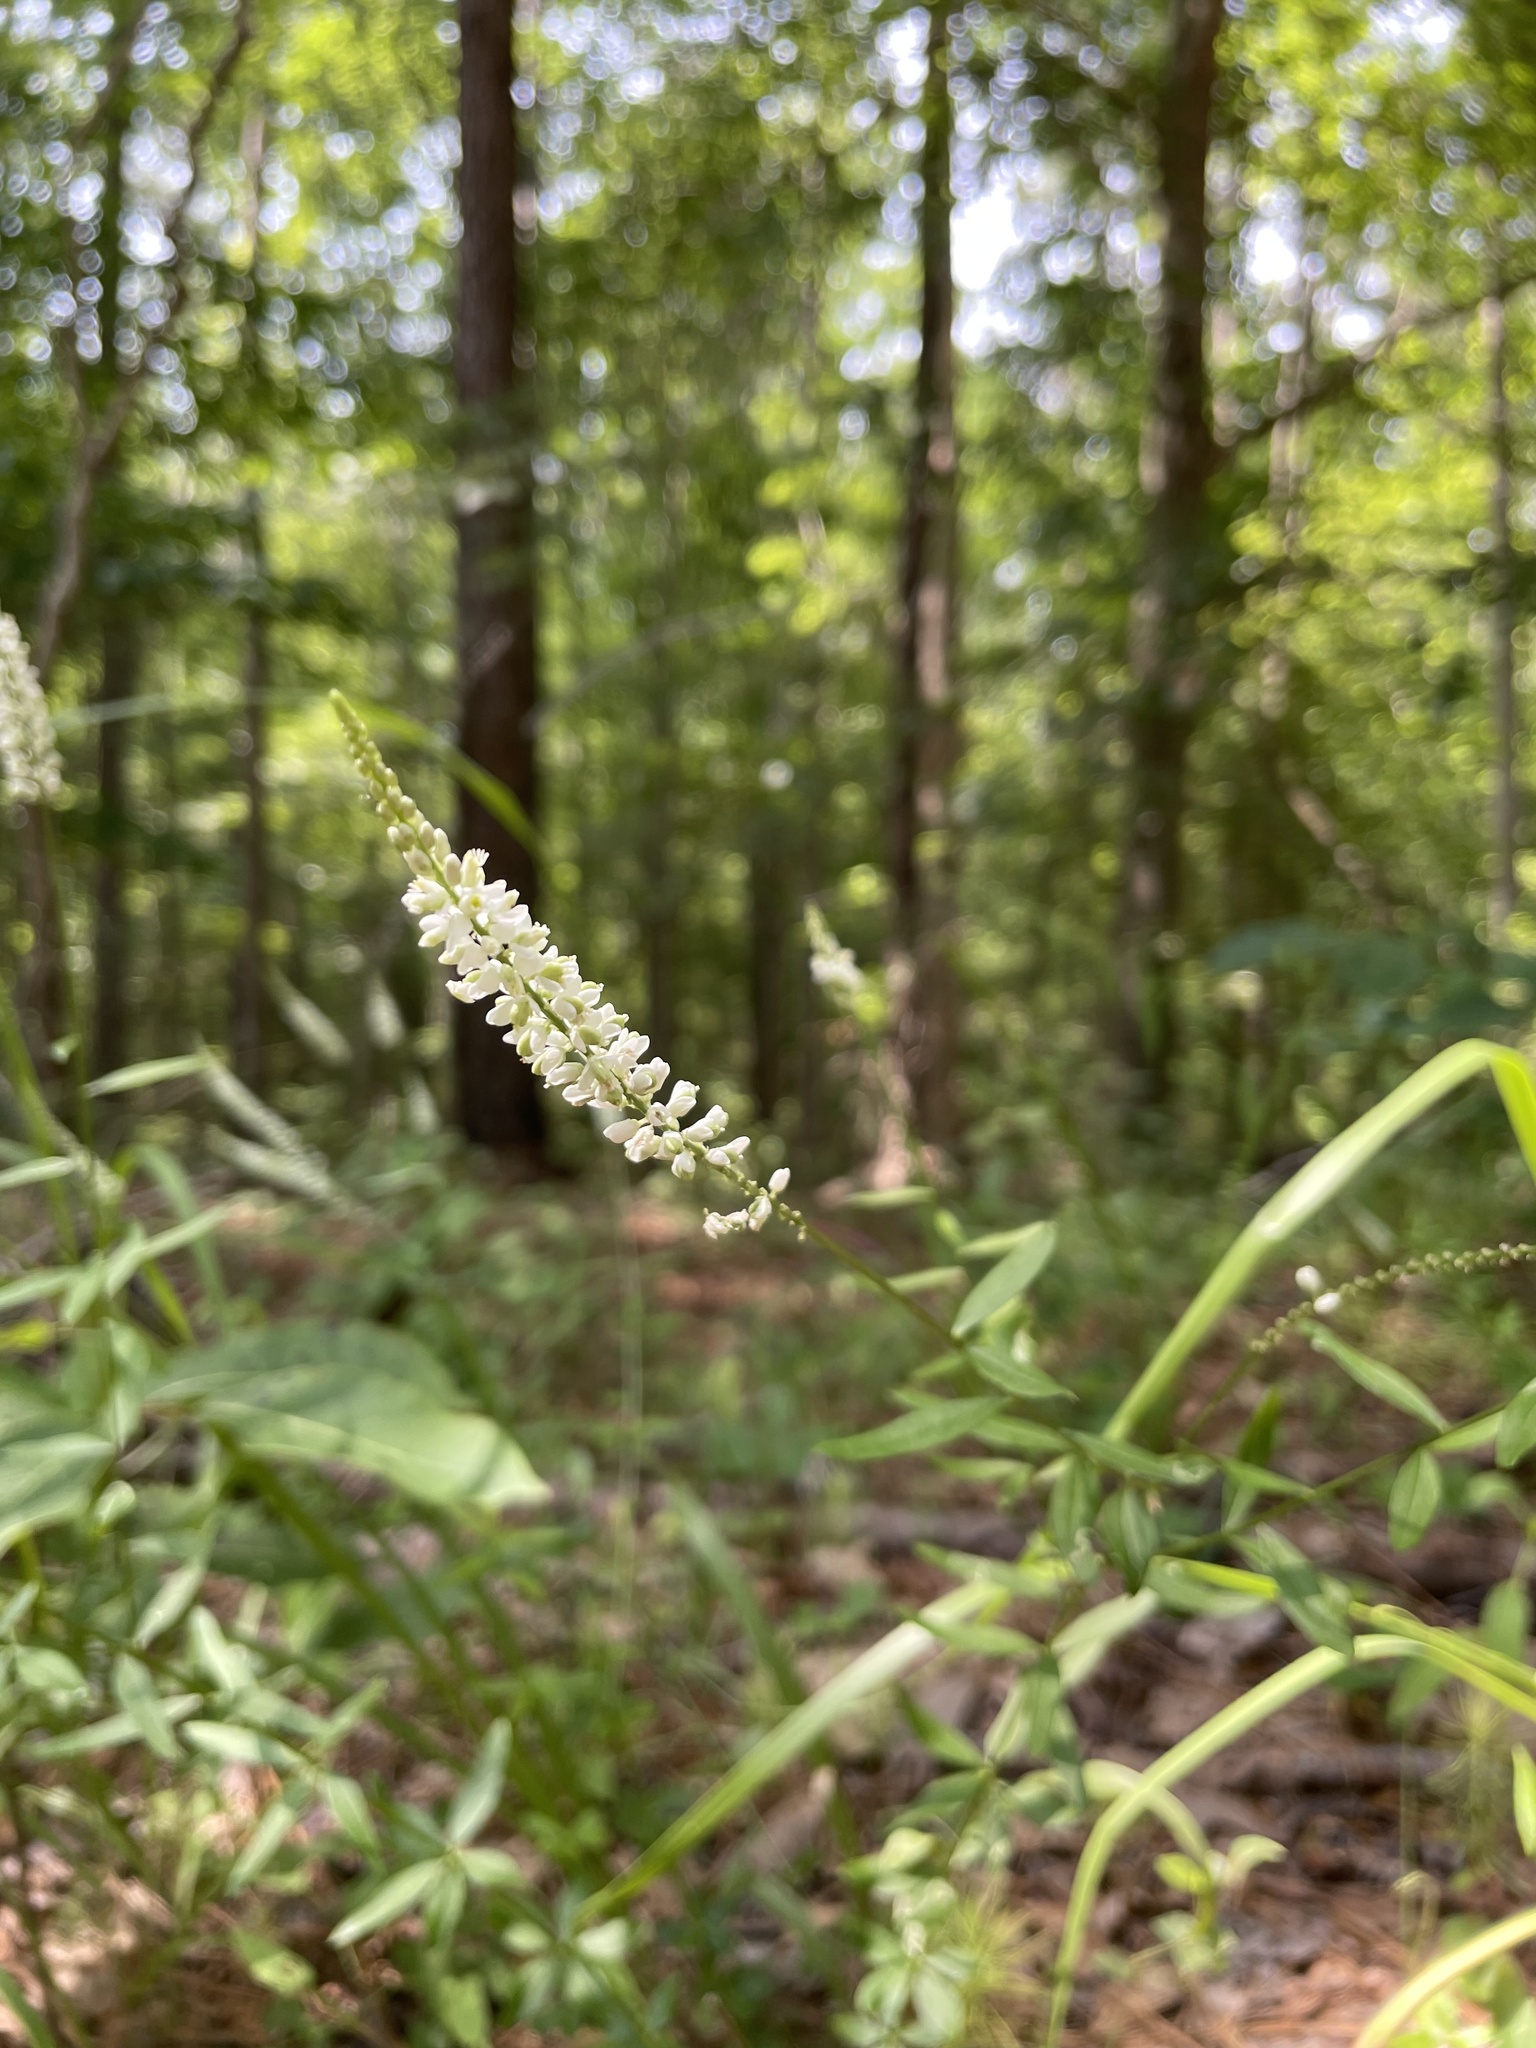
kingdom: Plantae
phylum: Tracheophyta
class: Magnoliopsida
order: Fabales
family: Polygalaceae
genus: Polygala
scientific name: Polygala boykinii
